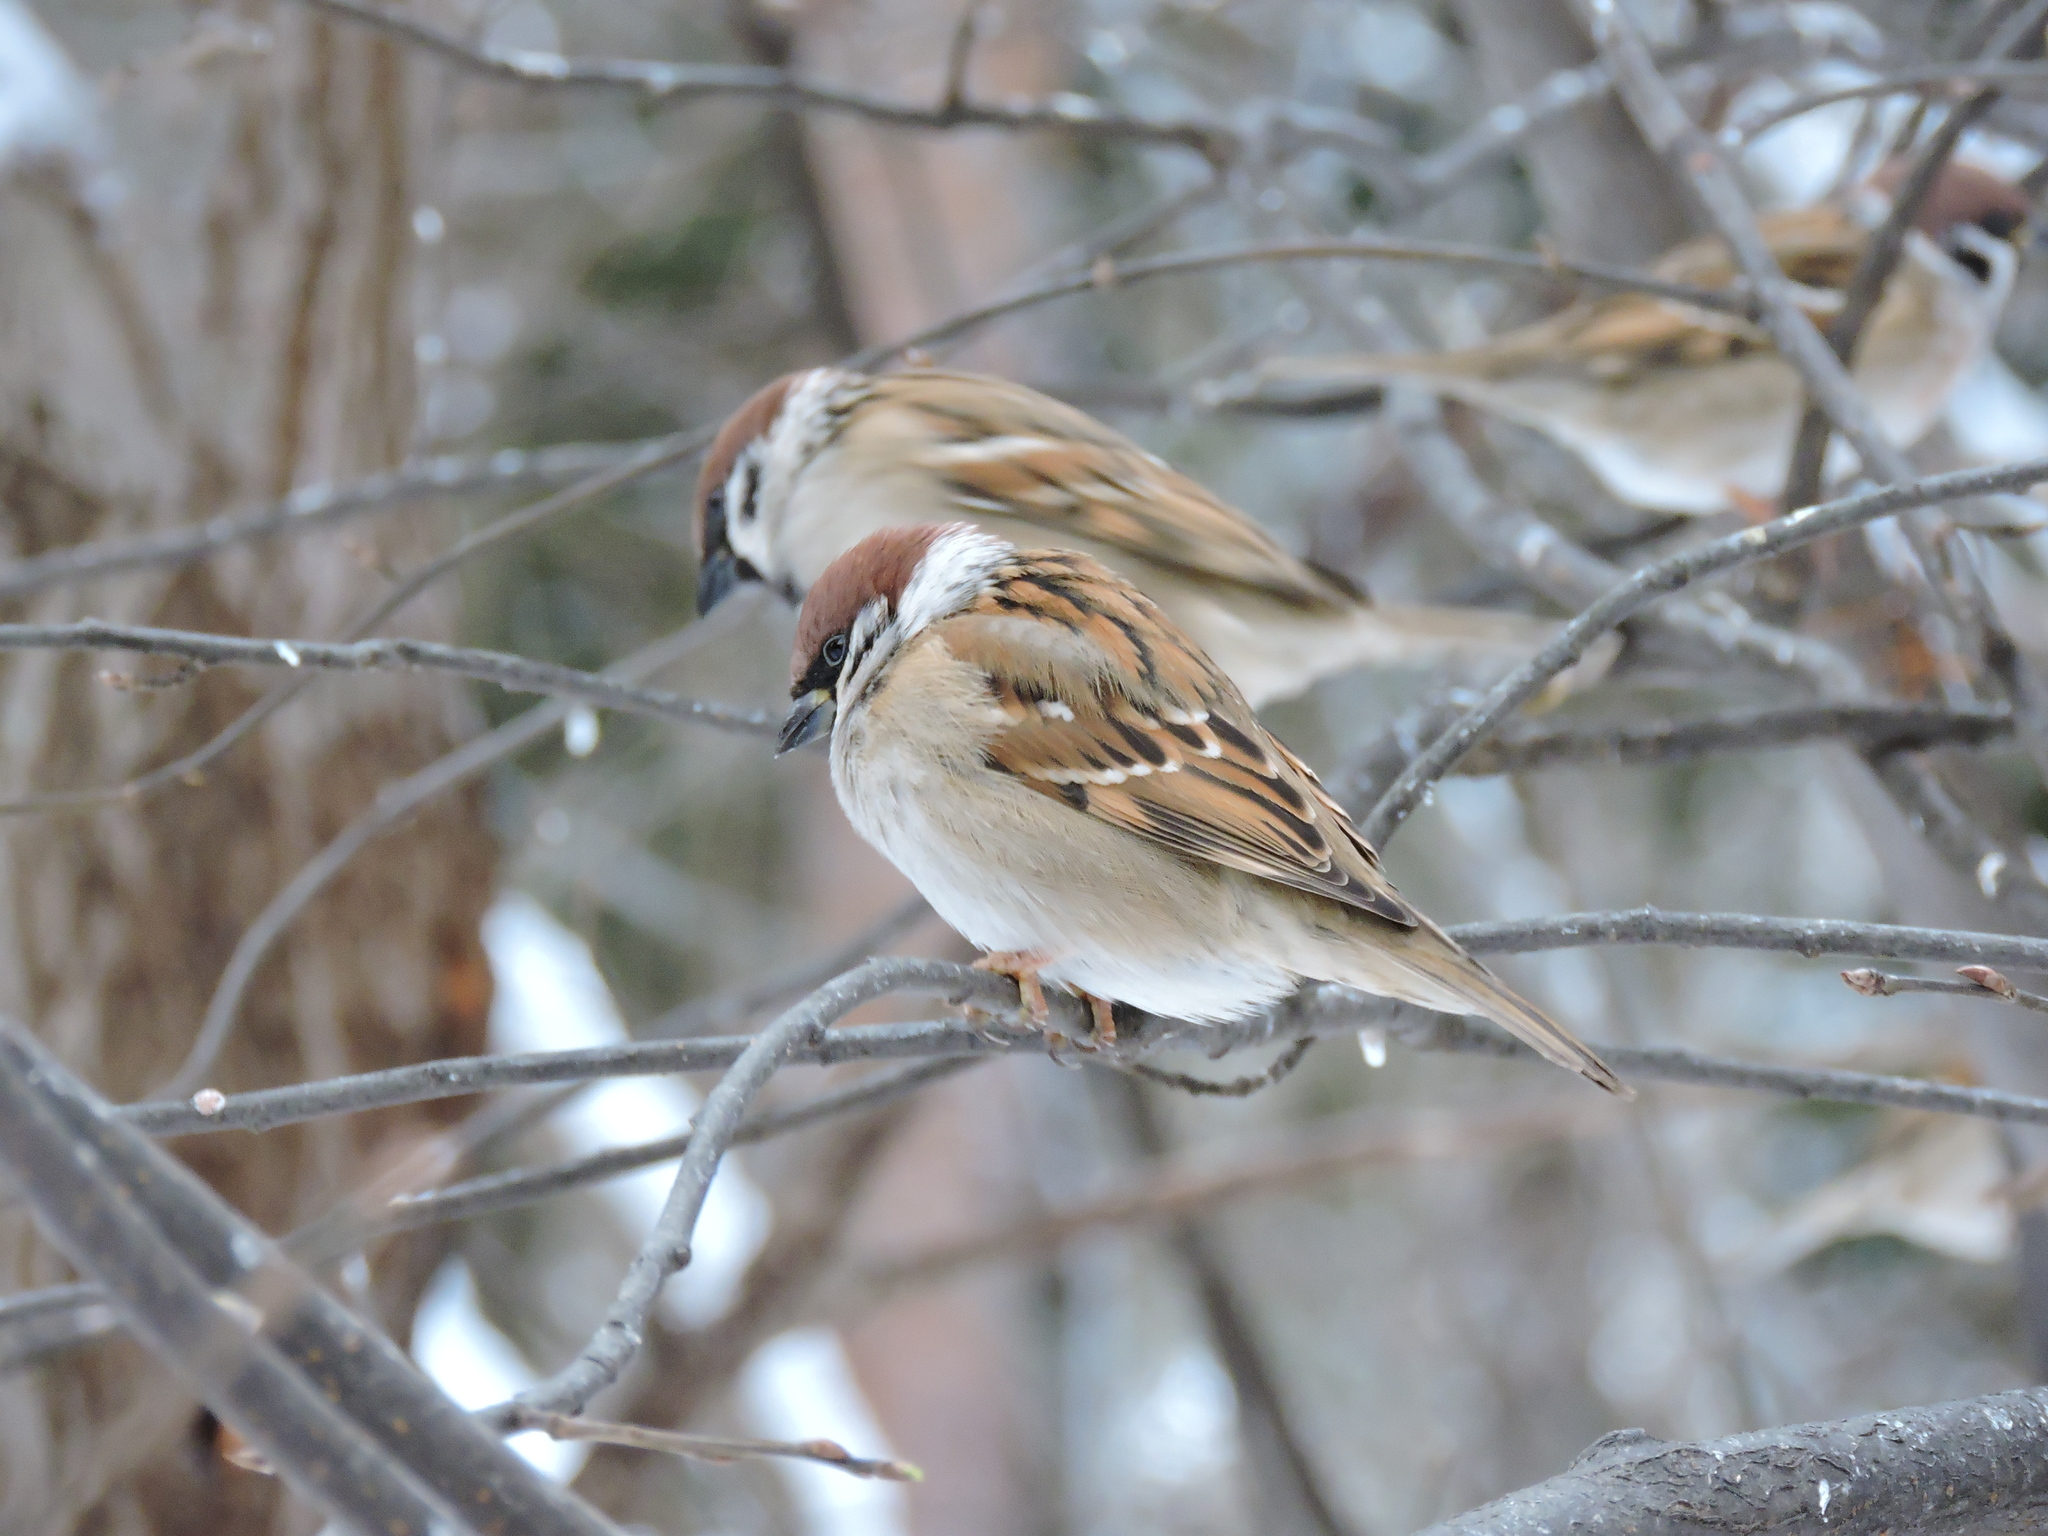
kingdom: Animalia
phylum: Chordata
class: Aves
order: Passeriformes
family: Passeridae
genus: Passer
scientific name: Passer montanus
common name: Eurasian tree sparrow
